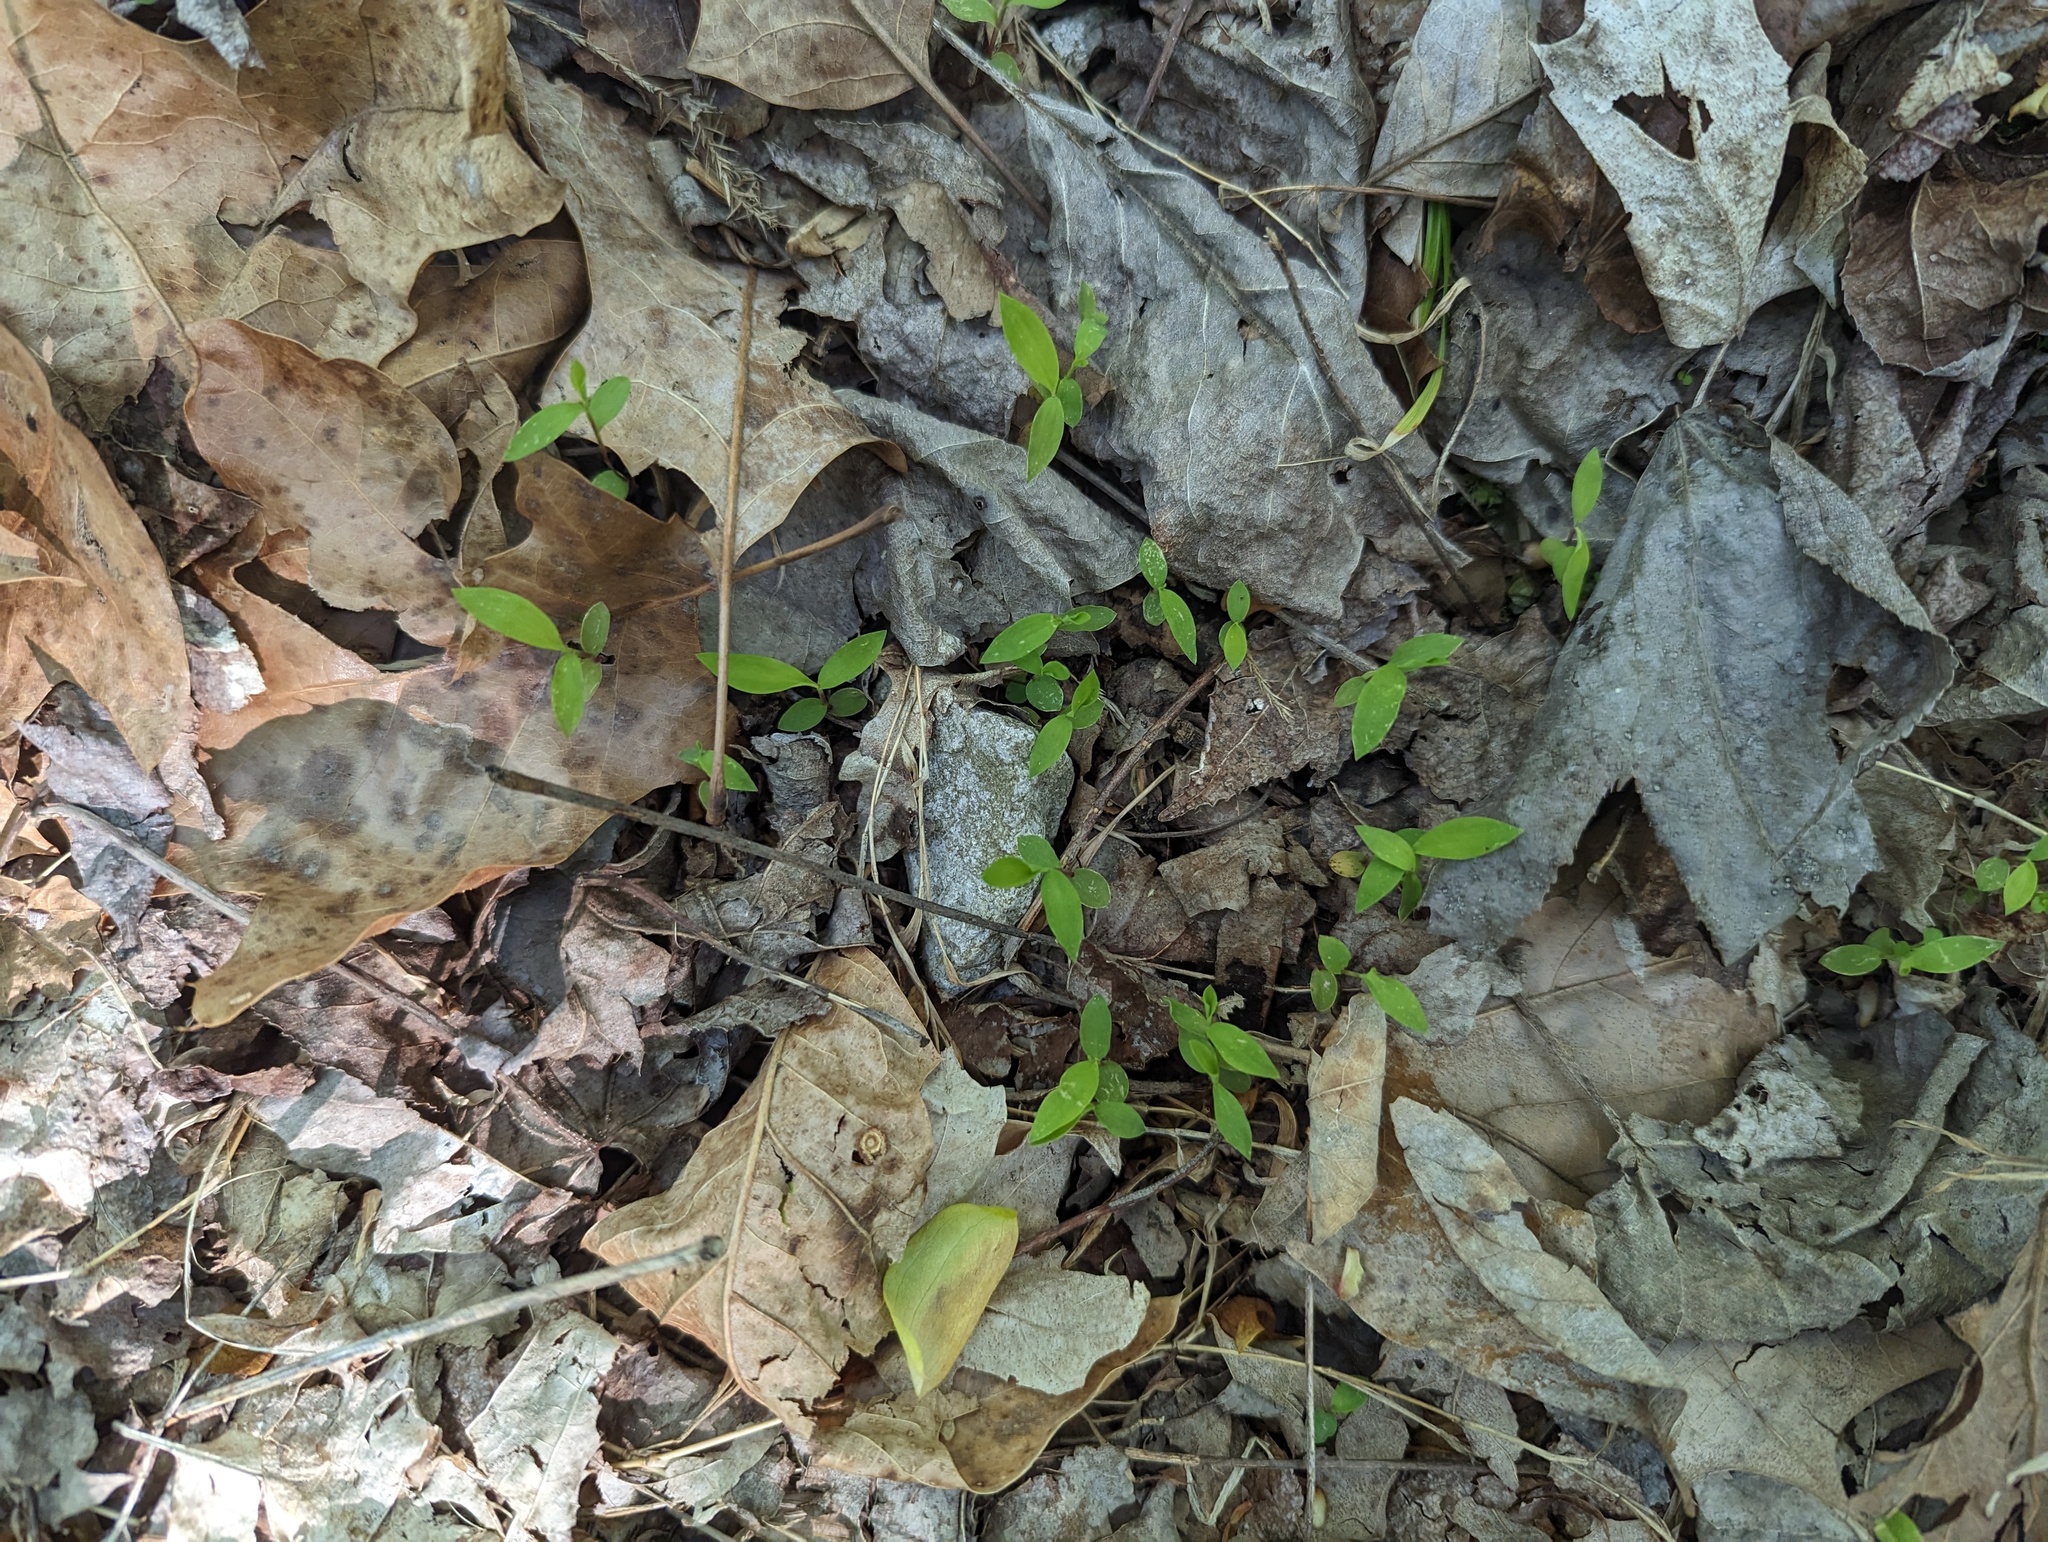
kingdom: Plantae
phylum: Tracheophyta
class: Liliopsida
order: Poales
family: Poaceae
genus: Microstegium
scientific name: Microstegium vimineum
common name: Japanese stiltgrass
